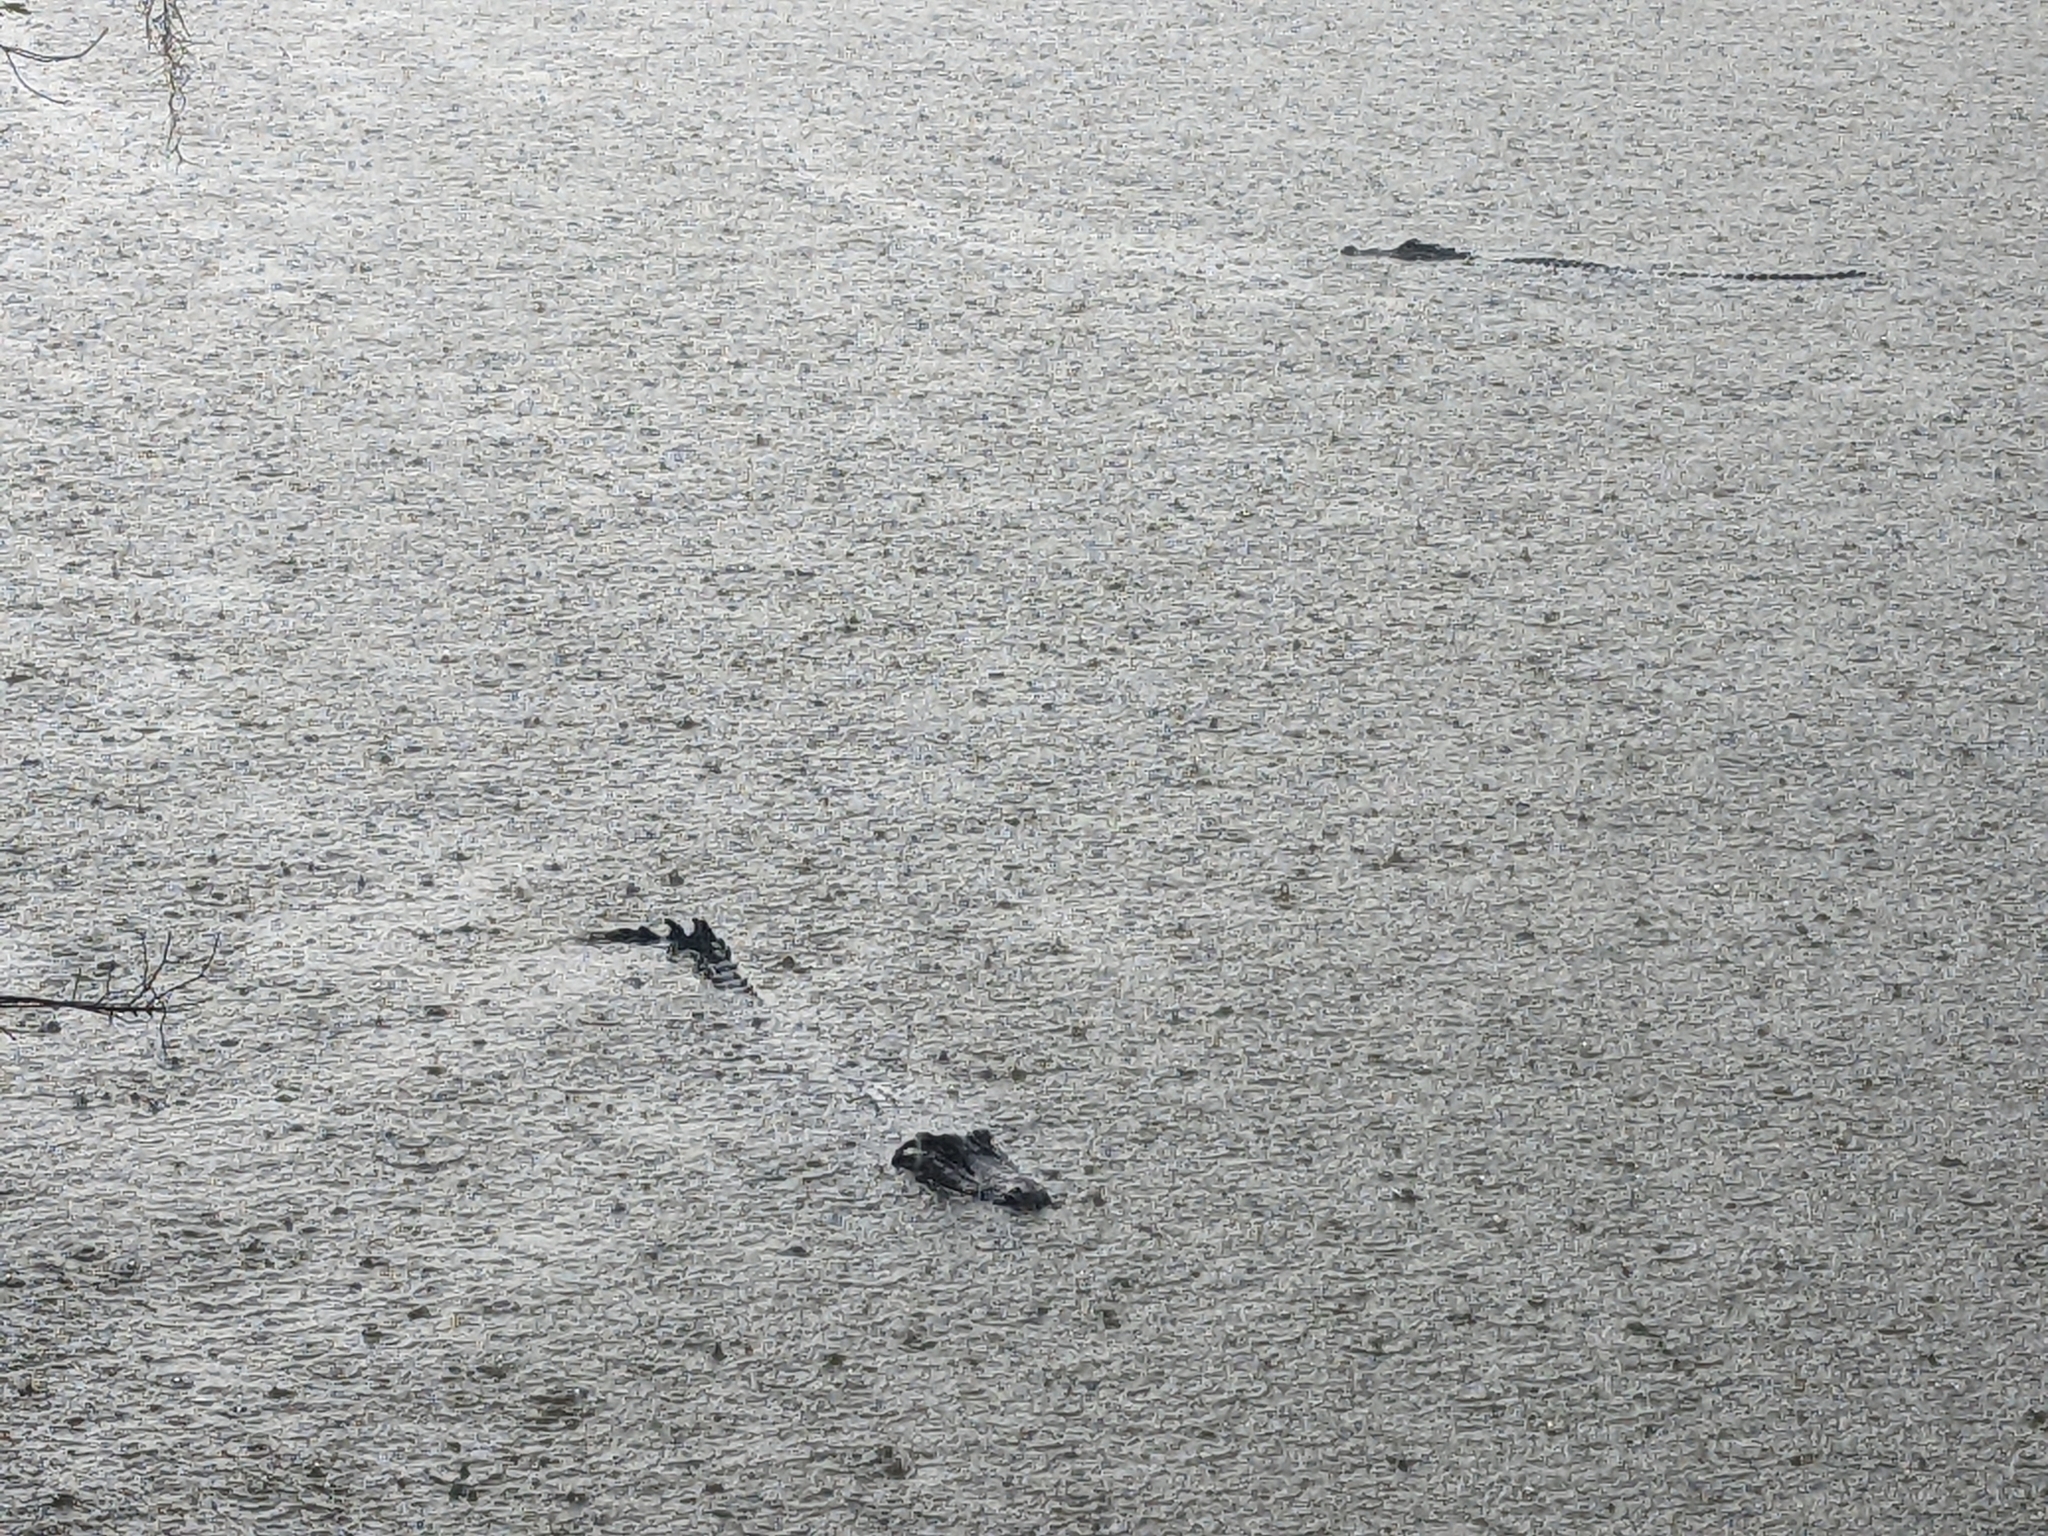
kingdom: Animalia
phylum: Chordata
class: Crocodylia
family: Alligatoridae
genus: Alligator
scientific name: Alligator mississippiensis
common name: American alligator
